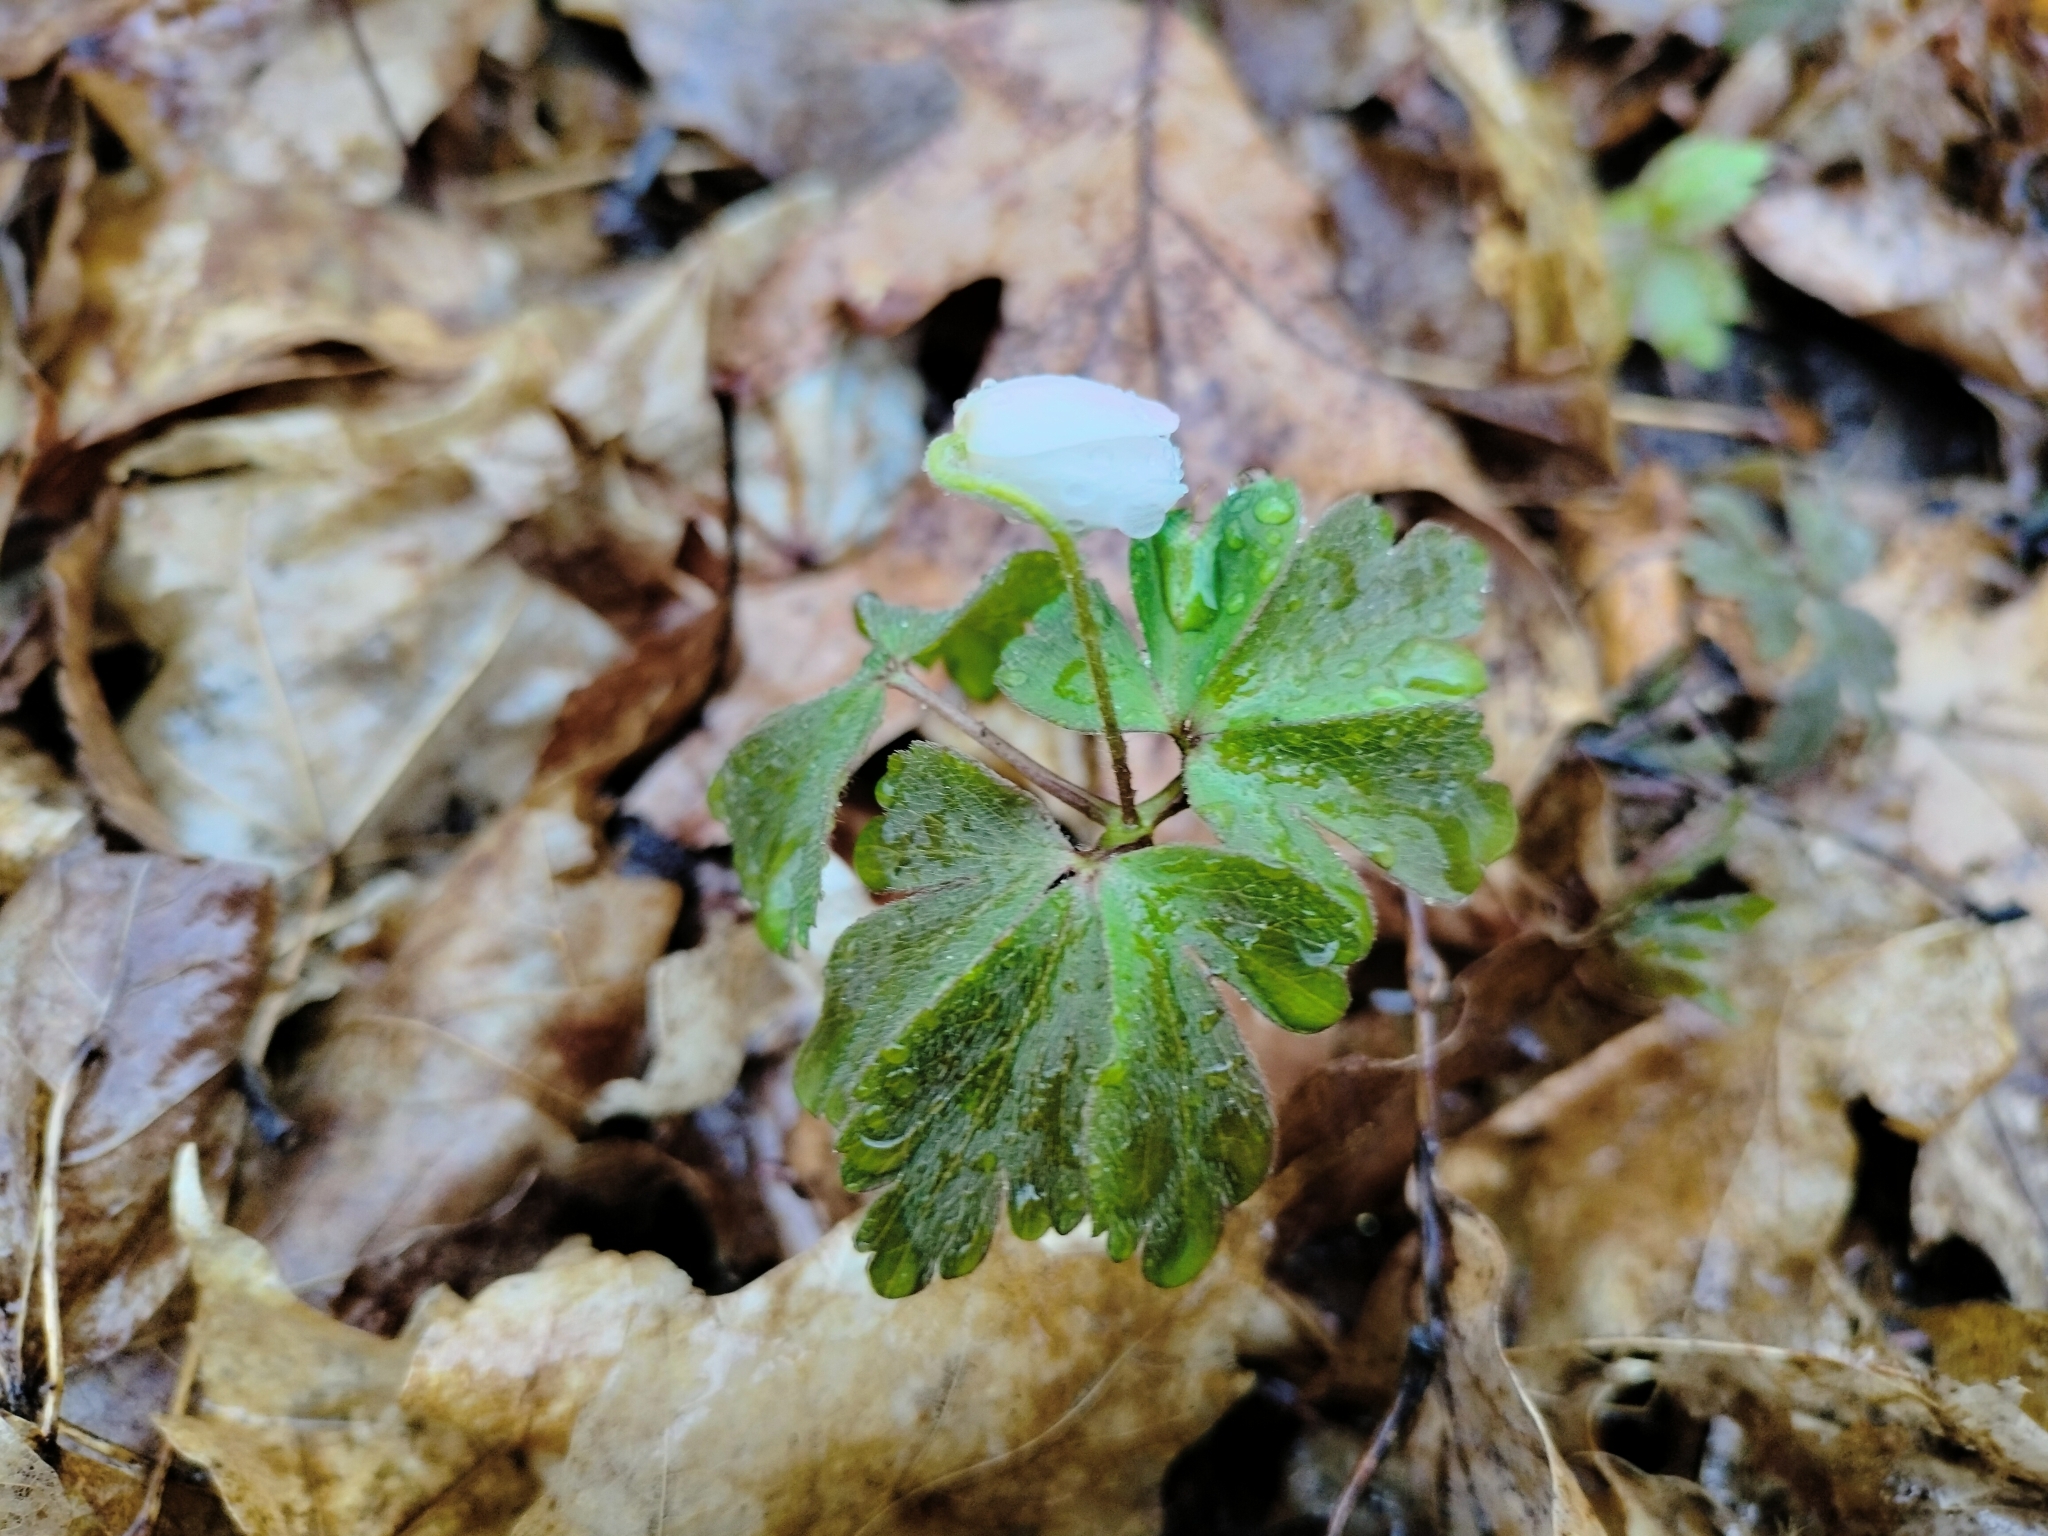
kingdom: Plantae
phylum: Tracheophyta
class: Magnoliopsida
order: Ranunculales
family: Ranunculaceae
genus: Anemone
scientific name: Anemone quinquefolia
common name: Wood anemone
